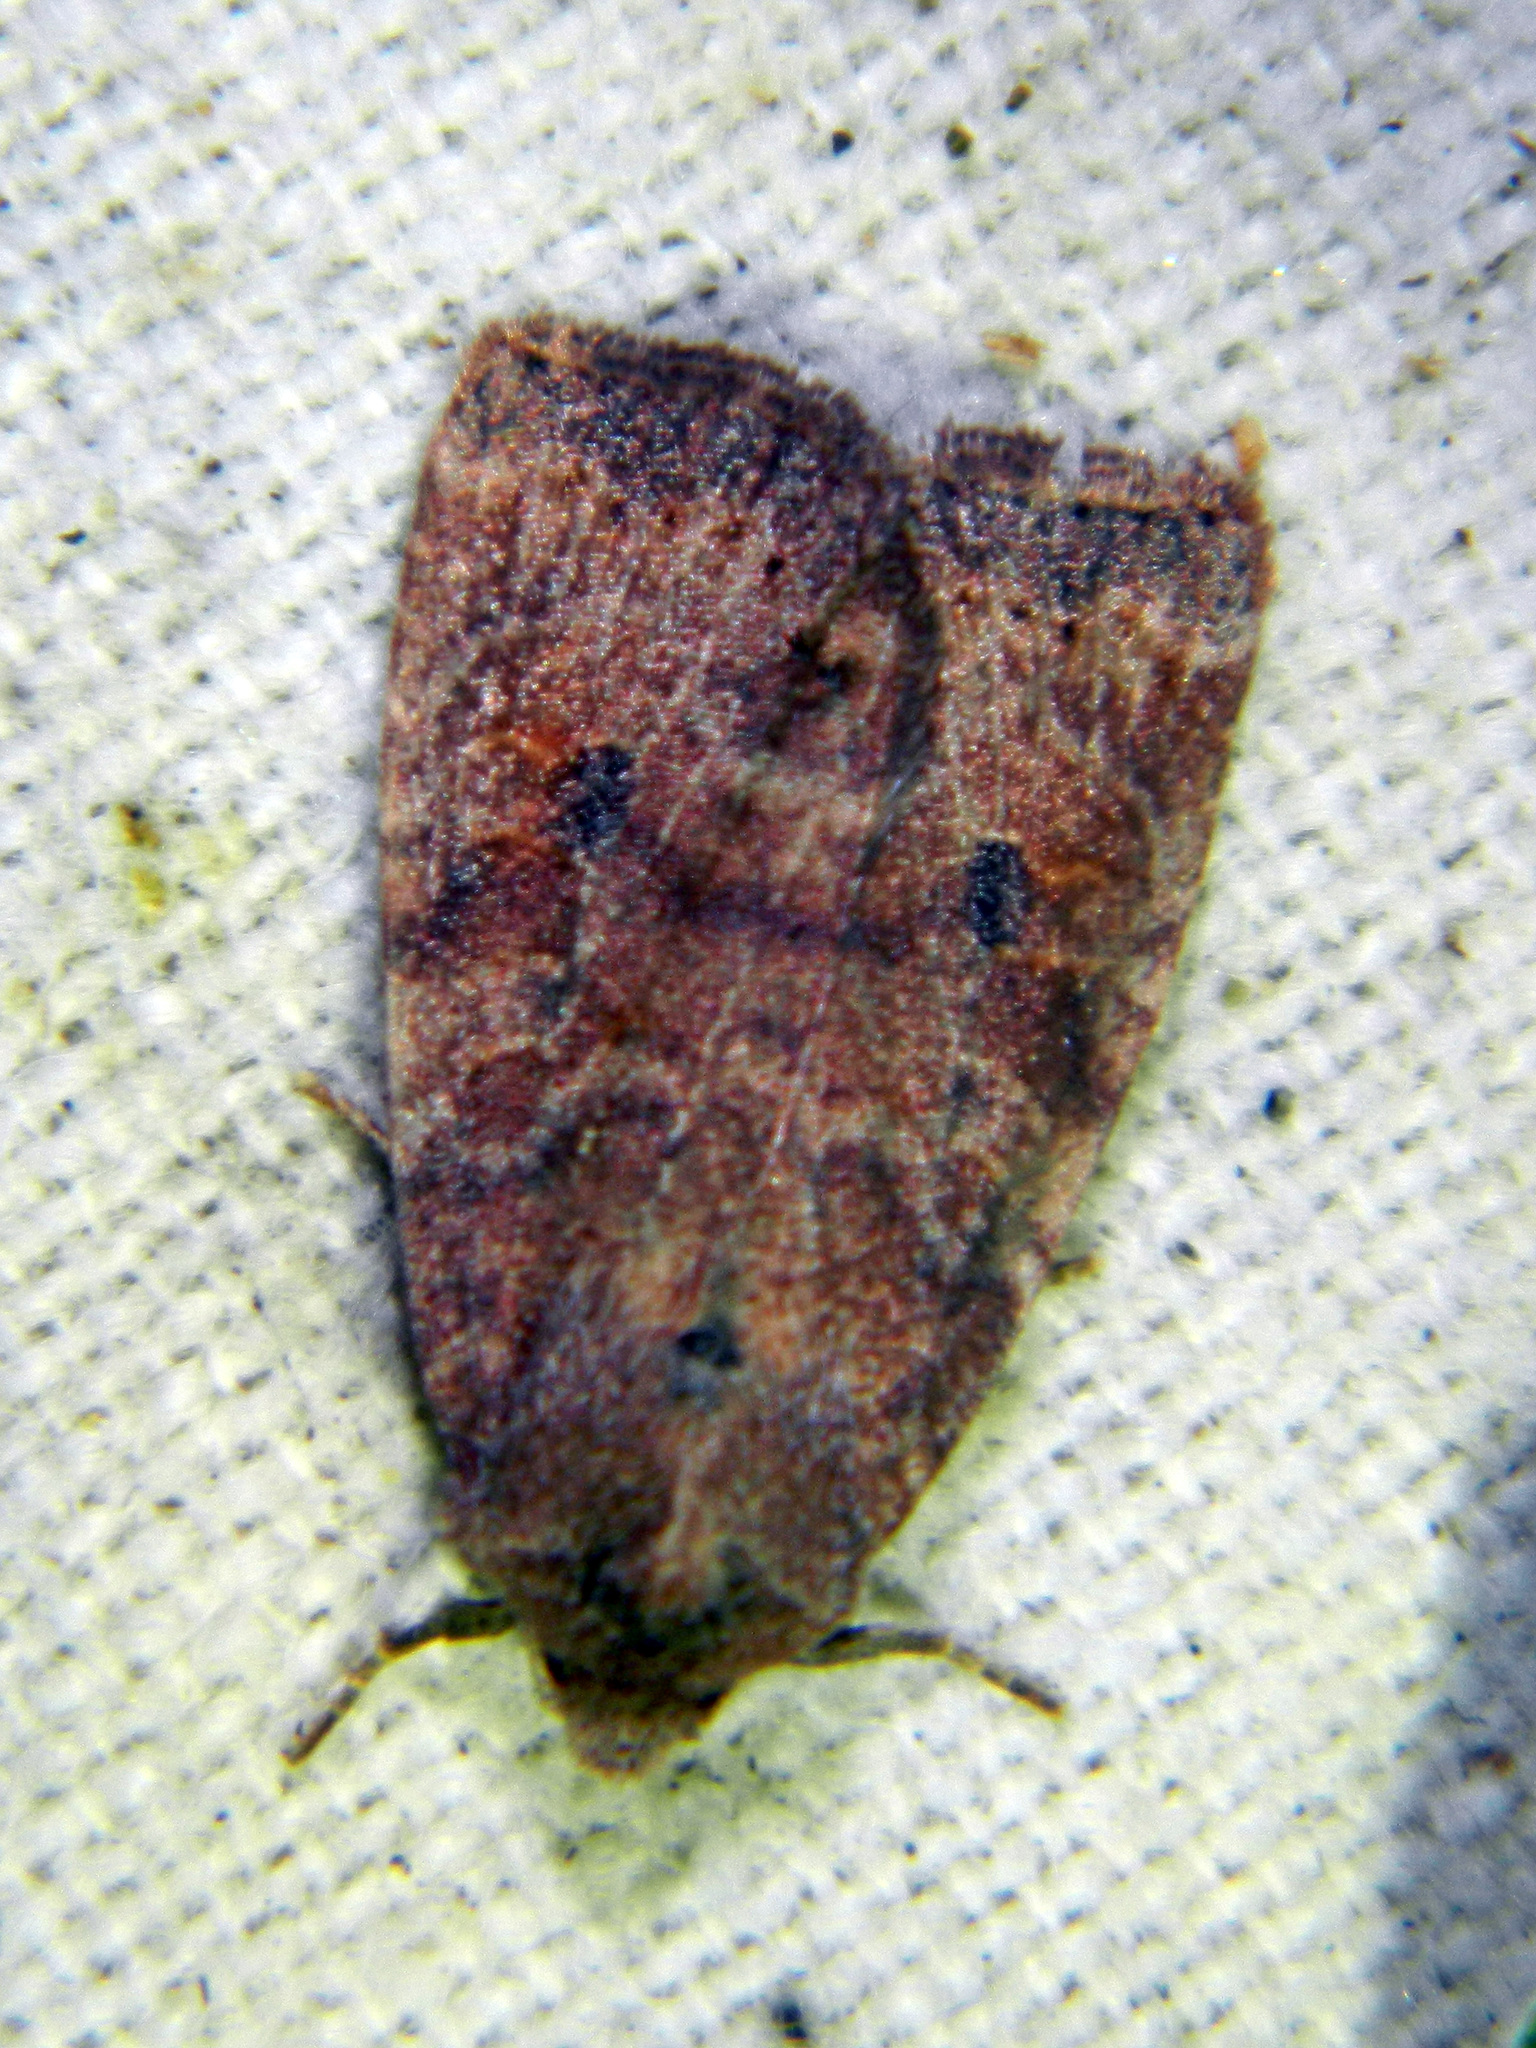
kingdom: Animalia
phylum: Arthropoda
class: Insecta
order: Lepidoptera
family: Noctuidae
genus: Anathix
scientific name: Anathix puta
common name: Puta sallow
